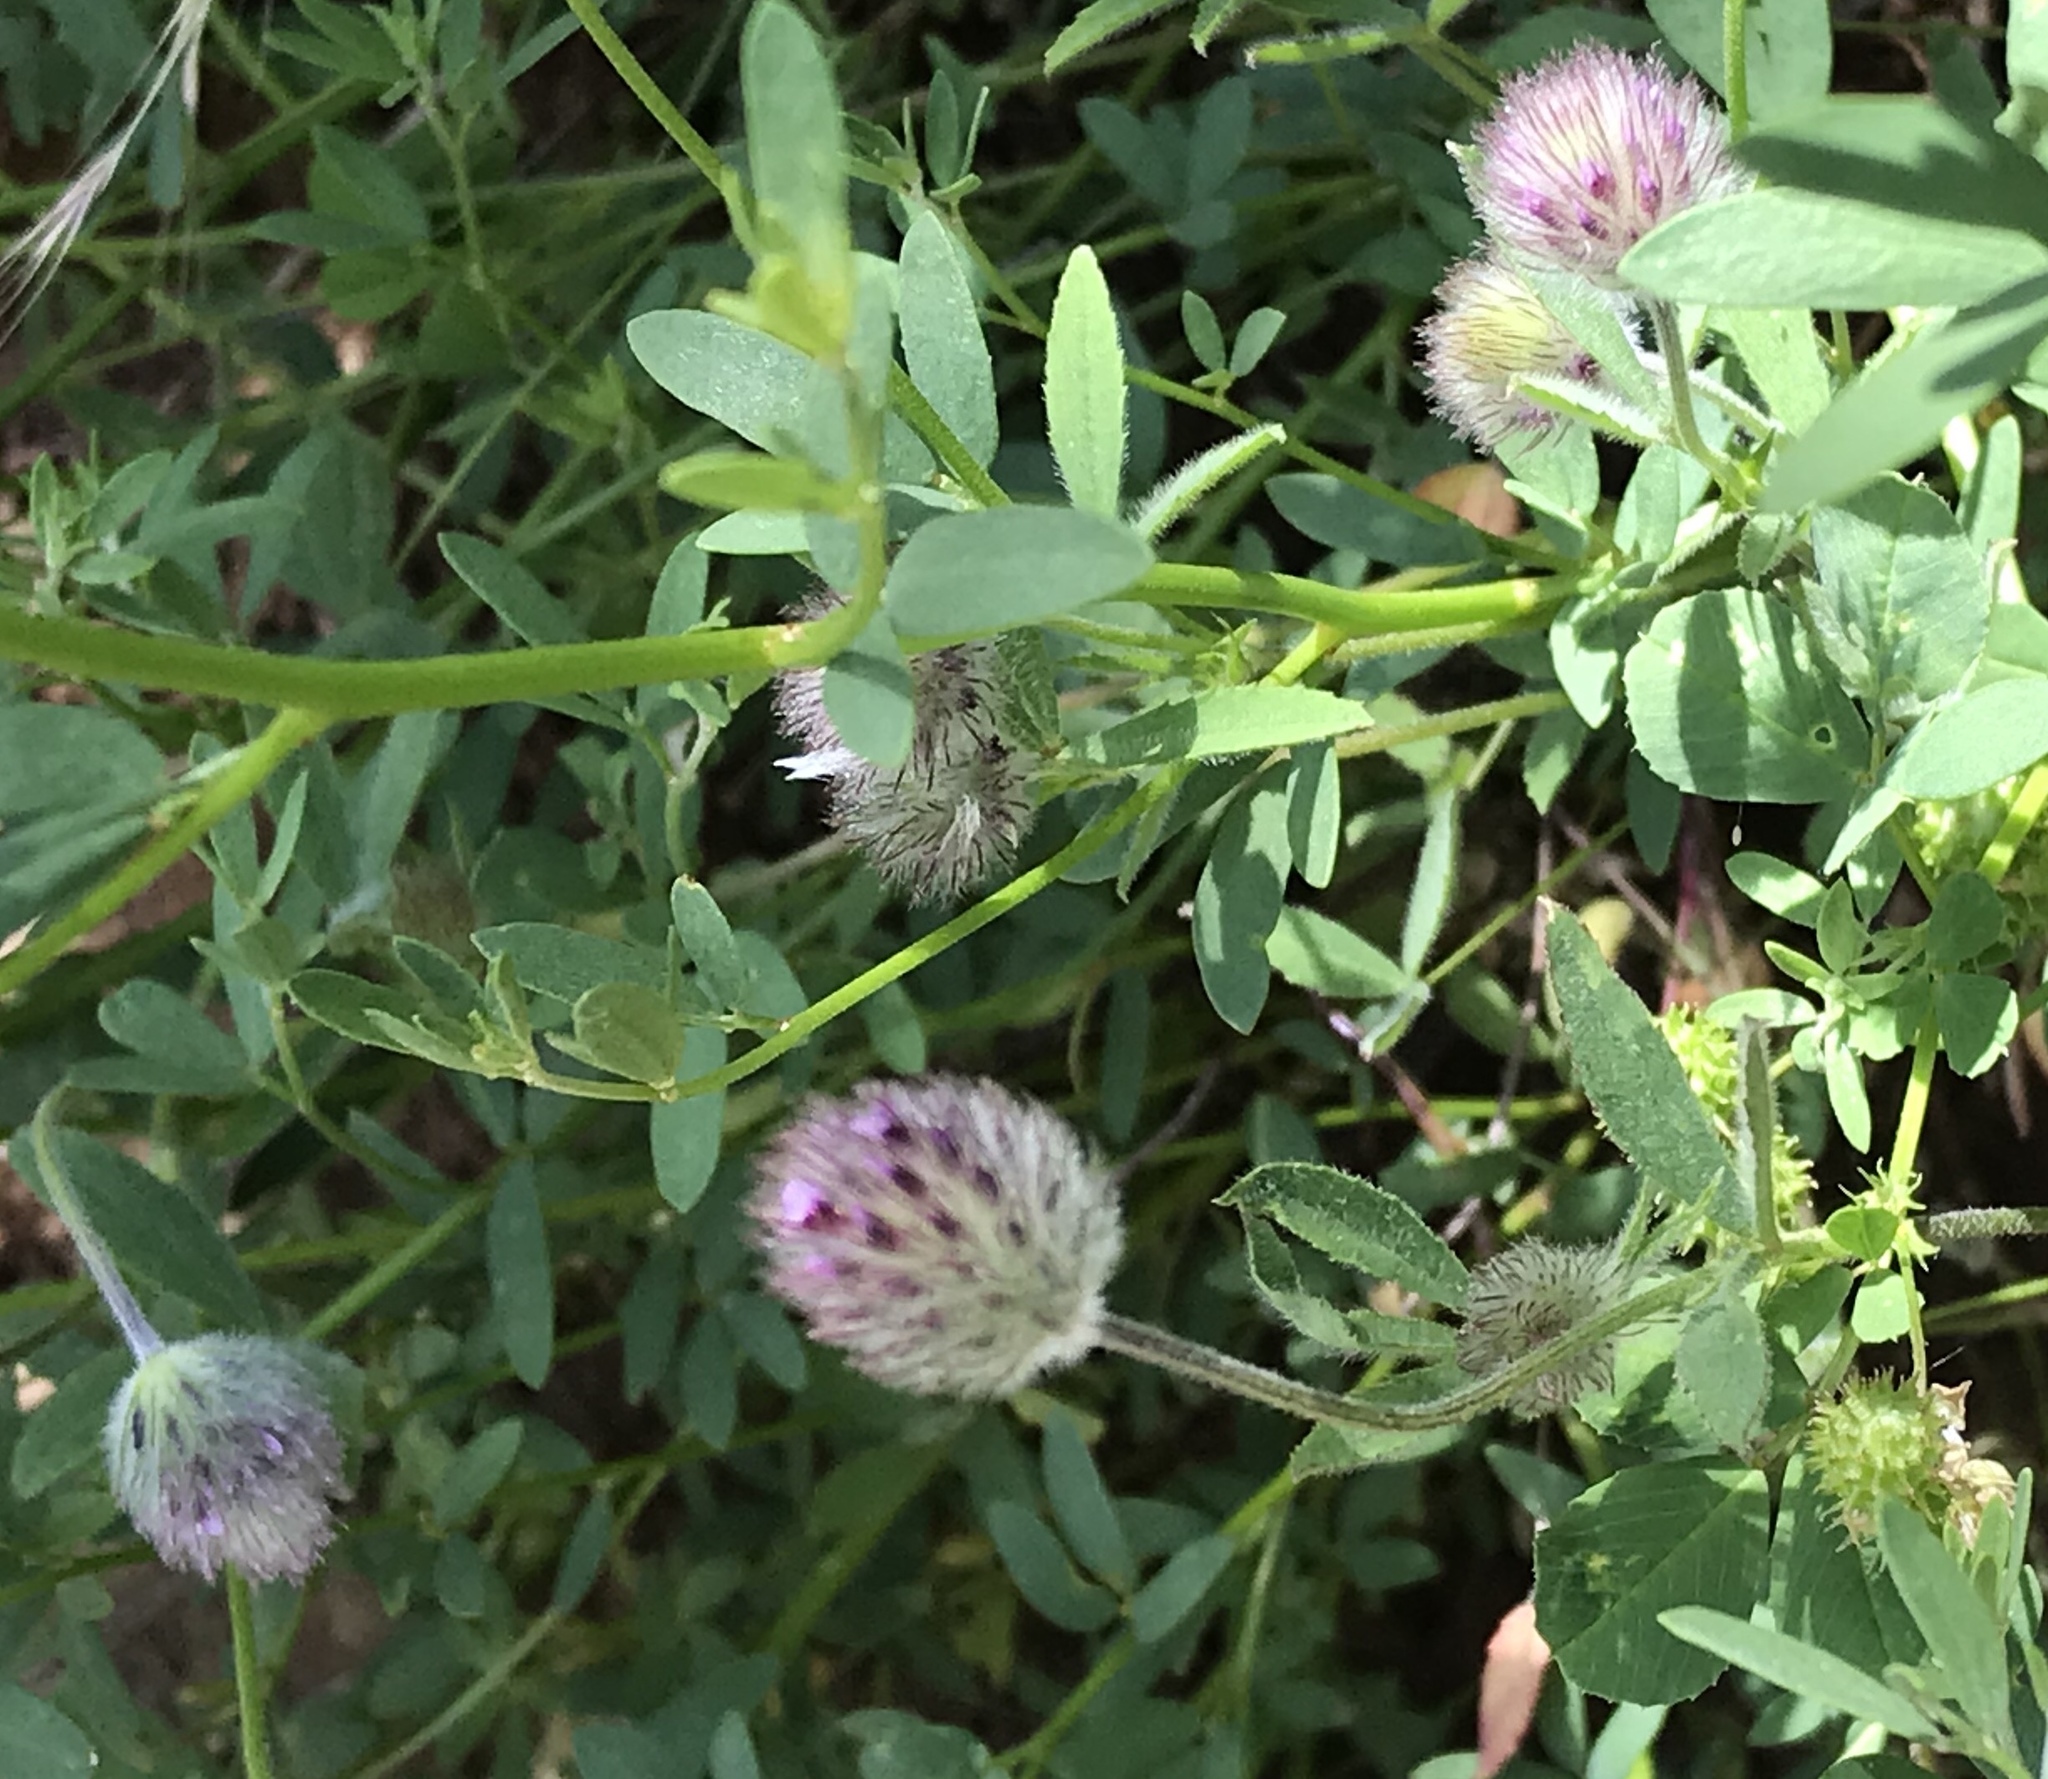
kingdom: Plantae
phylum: Tracheophyta
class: Magnoliopsida
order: Fabales
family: Fabaceae
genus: Trifolium
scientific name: Trifolium albopurpureum
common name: Rancheria clover
